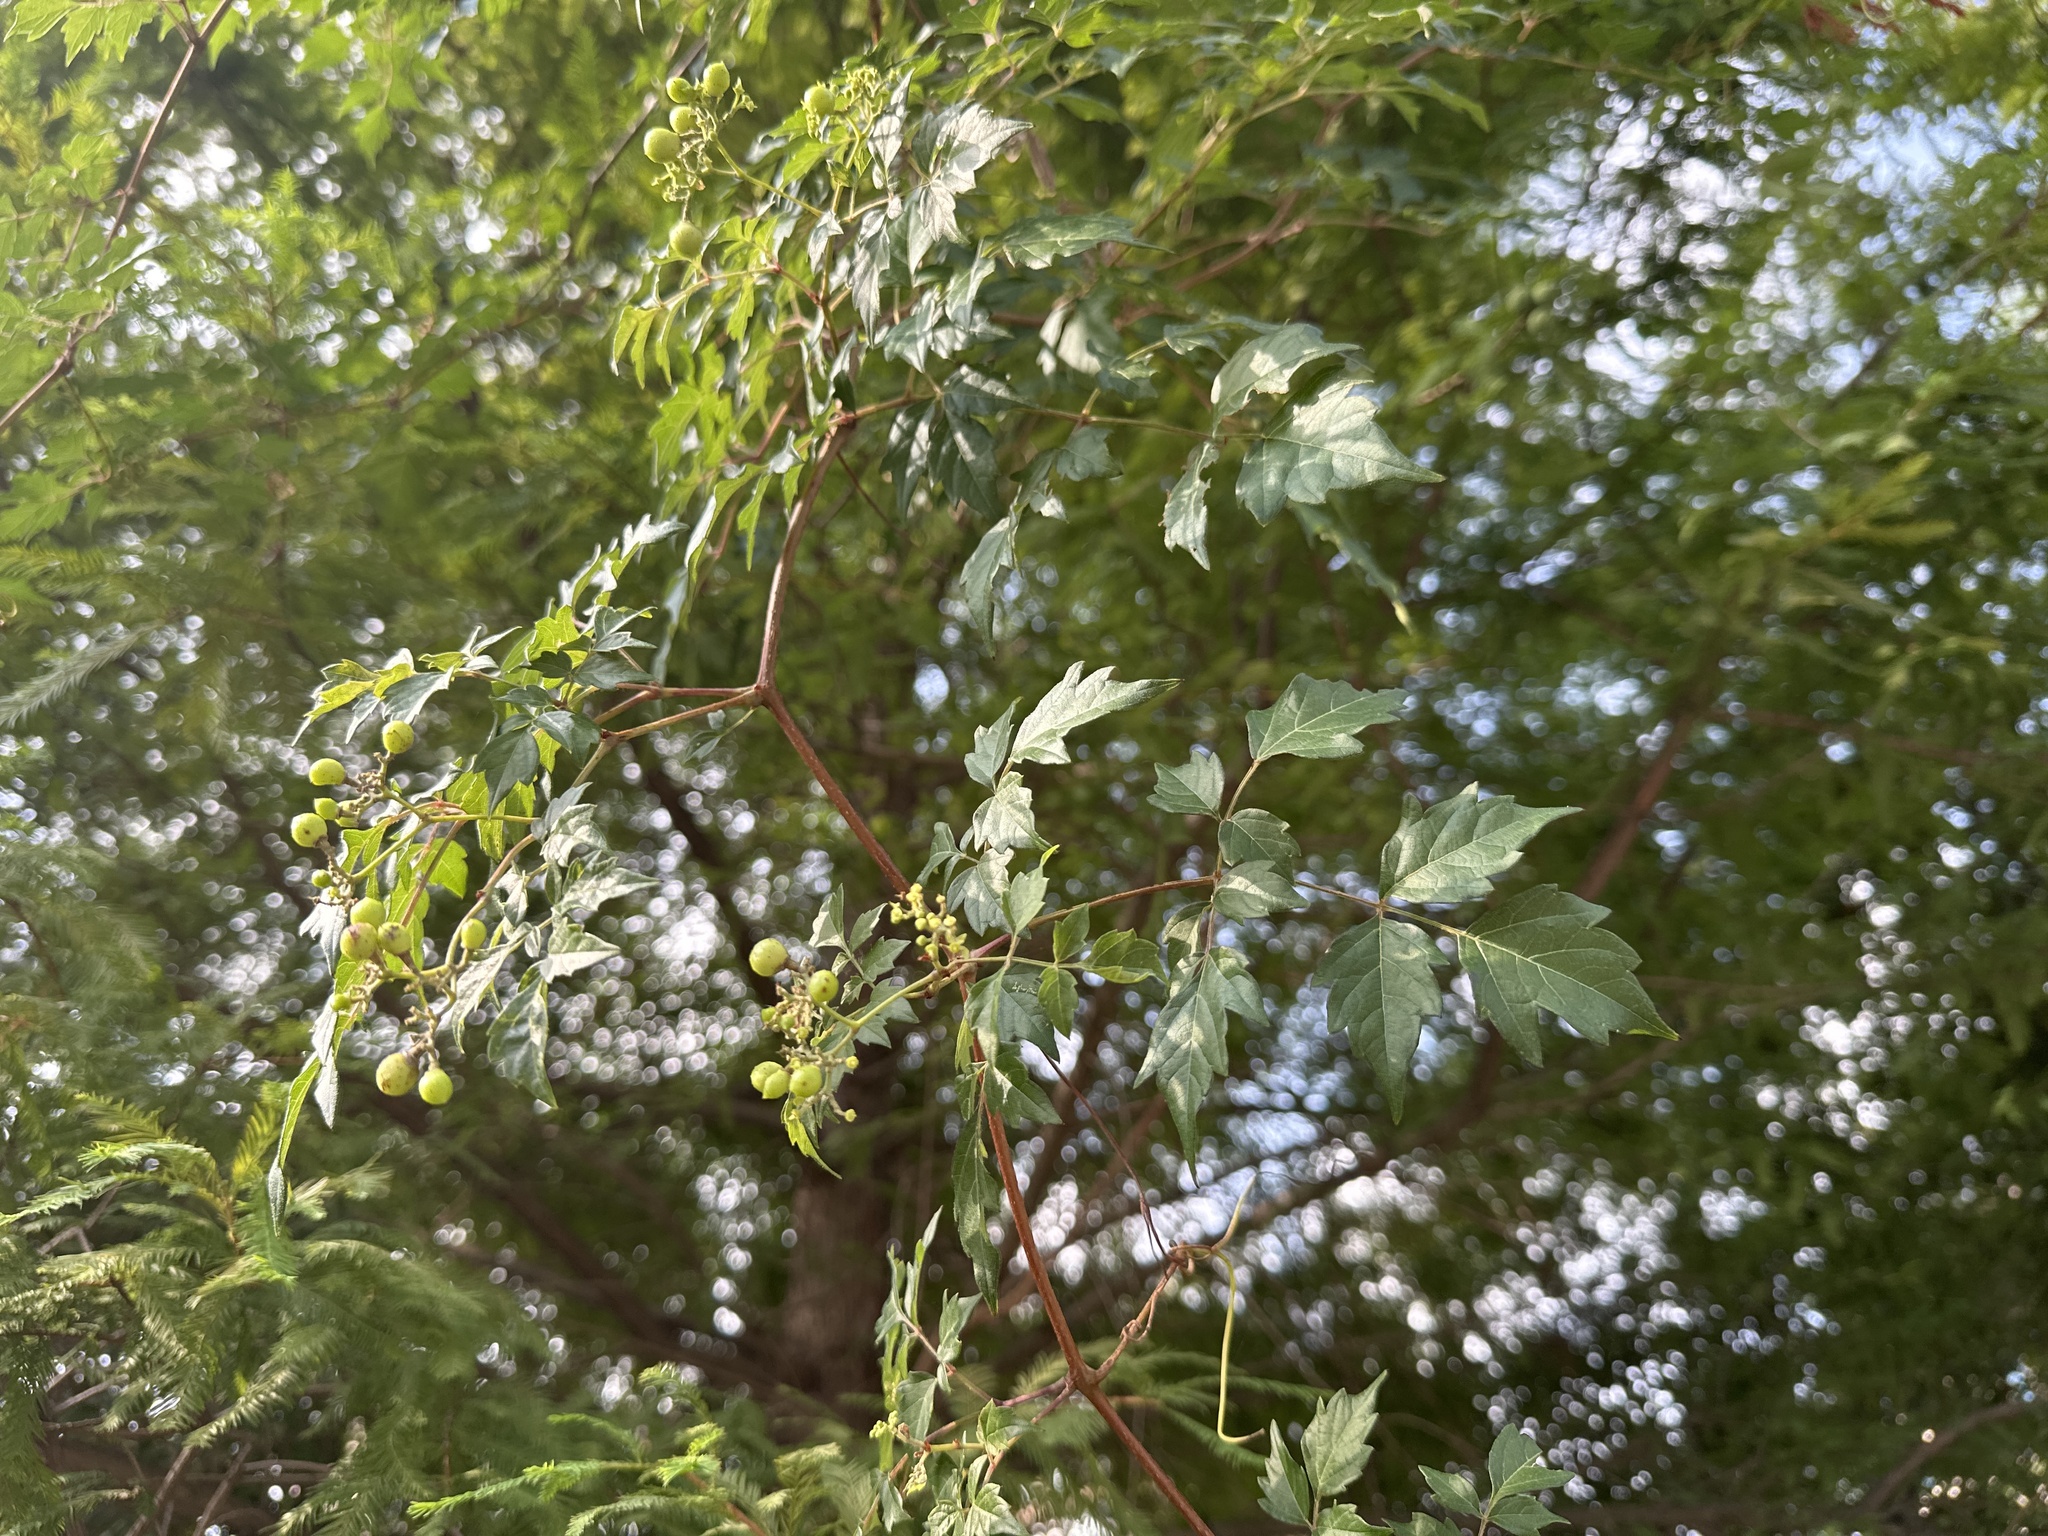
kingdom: Plantae
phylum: Tracheophyta
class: Magnoliopsida
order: Vitales
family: Vitaceae
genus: Nekemias
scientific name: Nekemias arborea
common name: Peppervine
